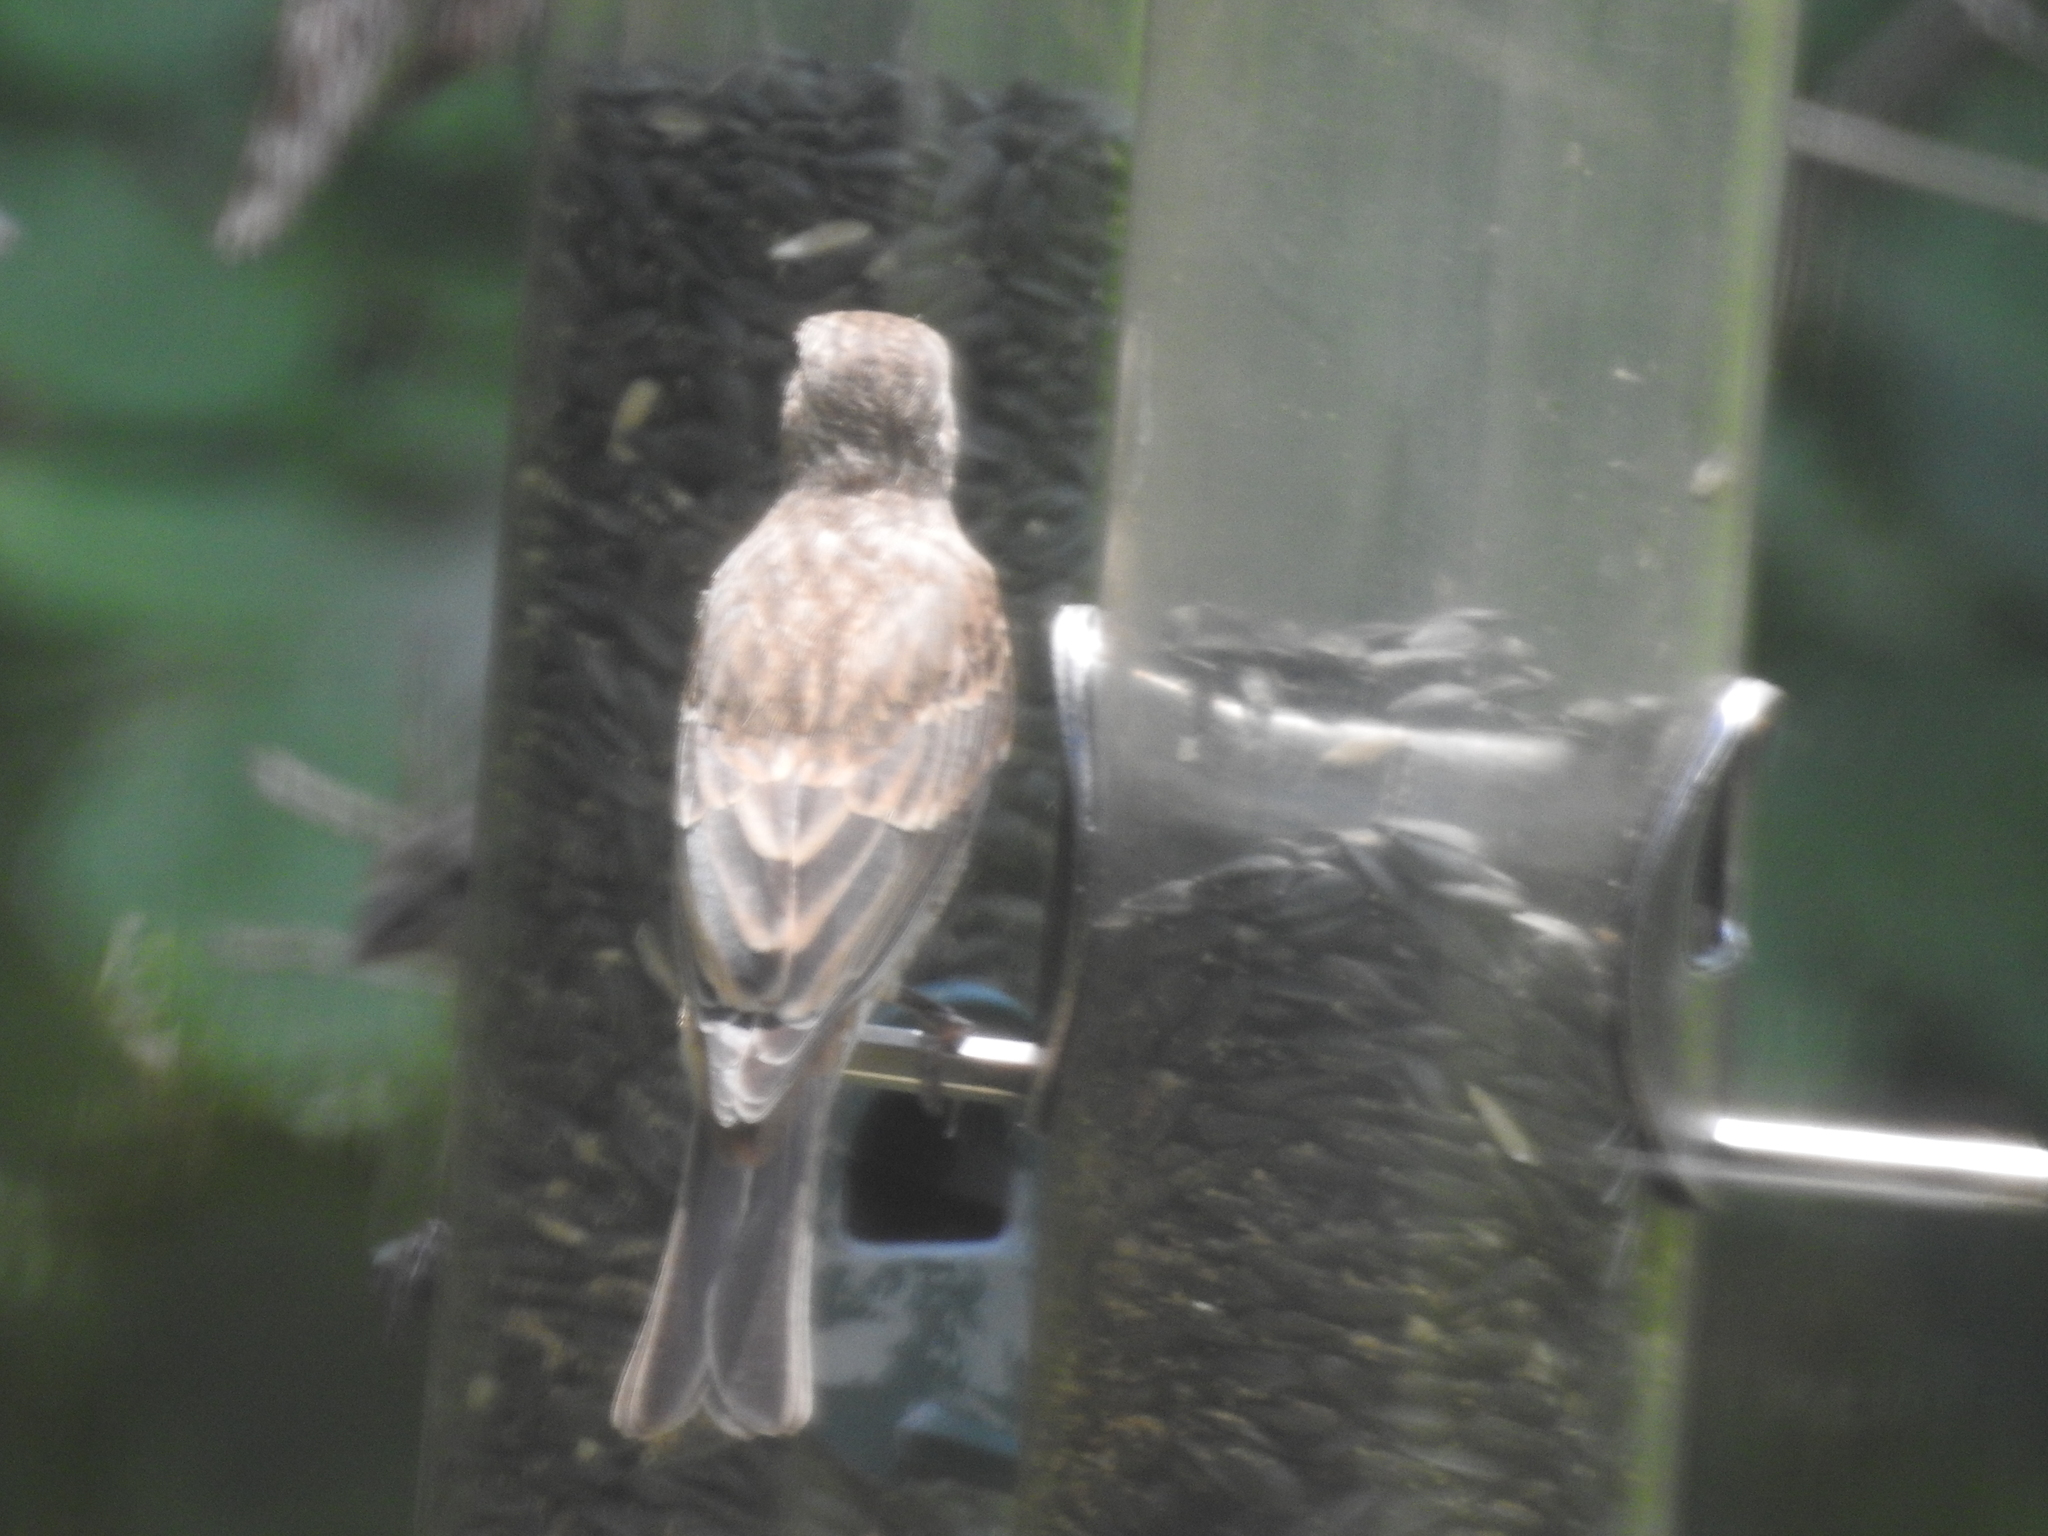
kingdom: Animalia
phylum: Chordata
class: Aves
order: Passeriformes
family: Fringillidae
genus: Haemorhous
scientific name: Haemorhous mexicanus
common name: House finch
